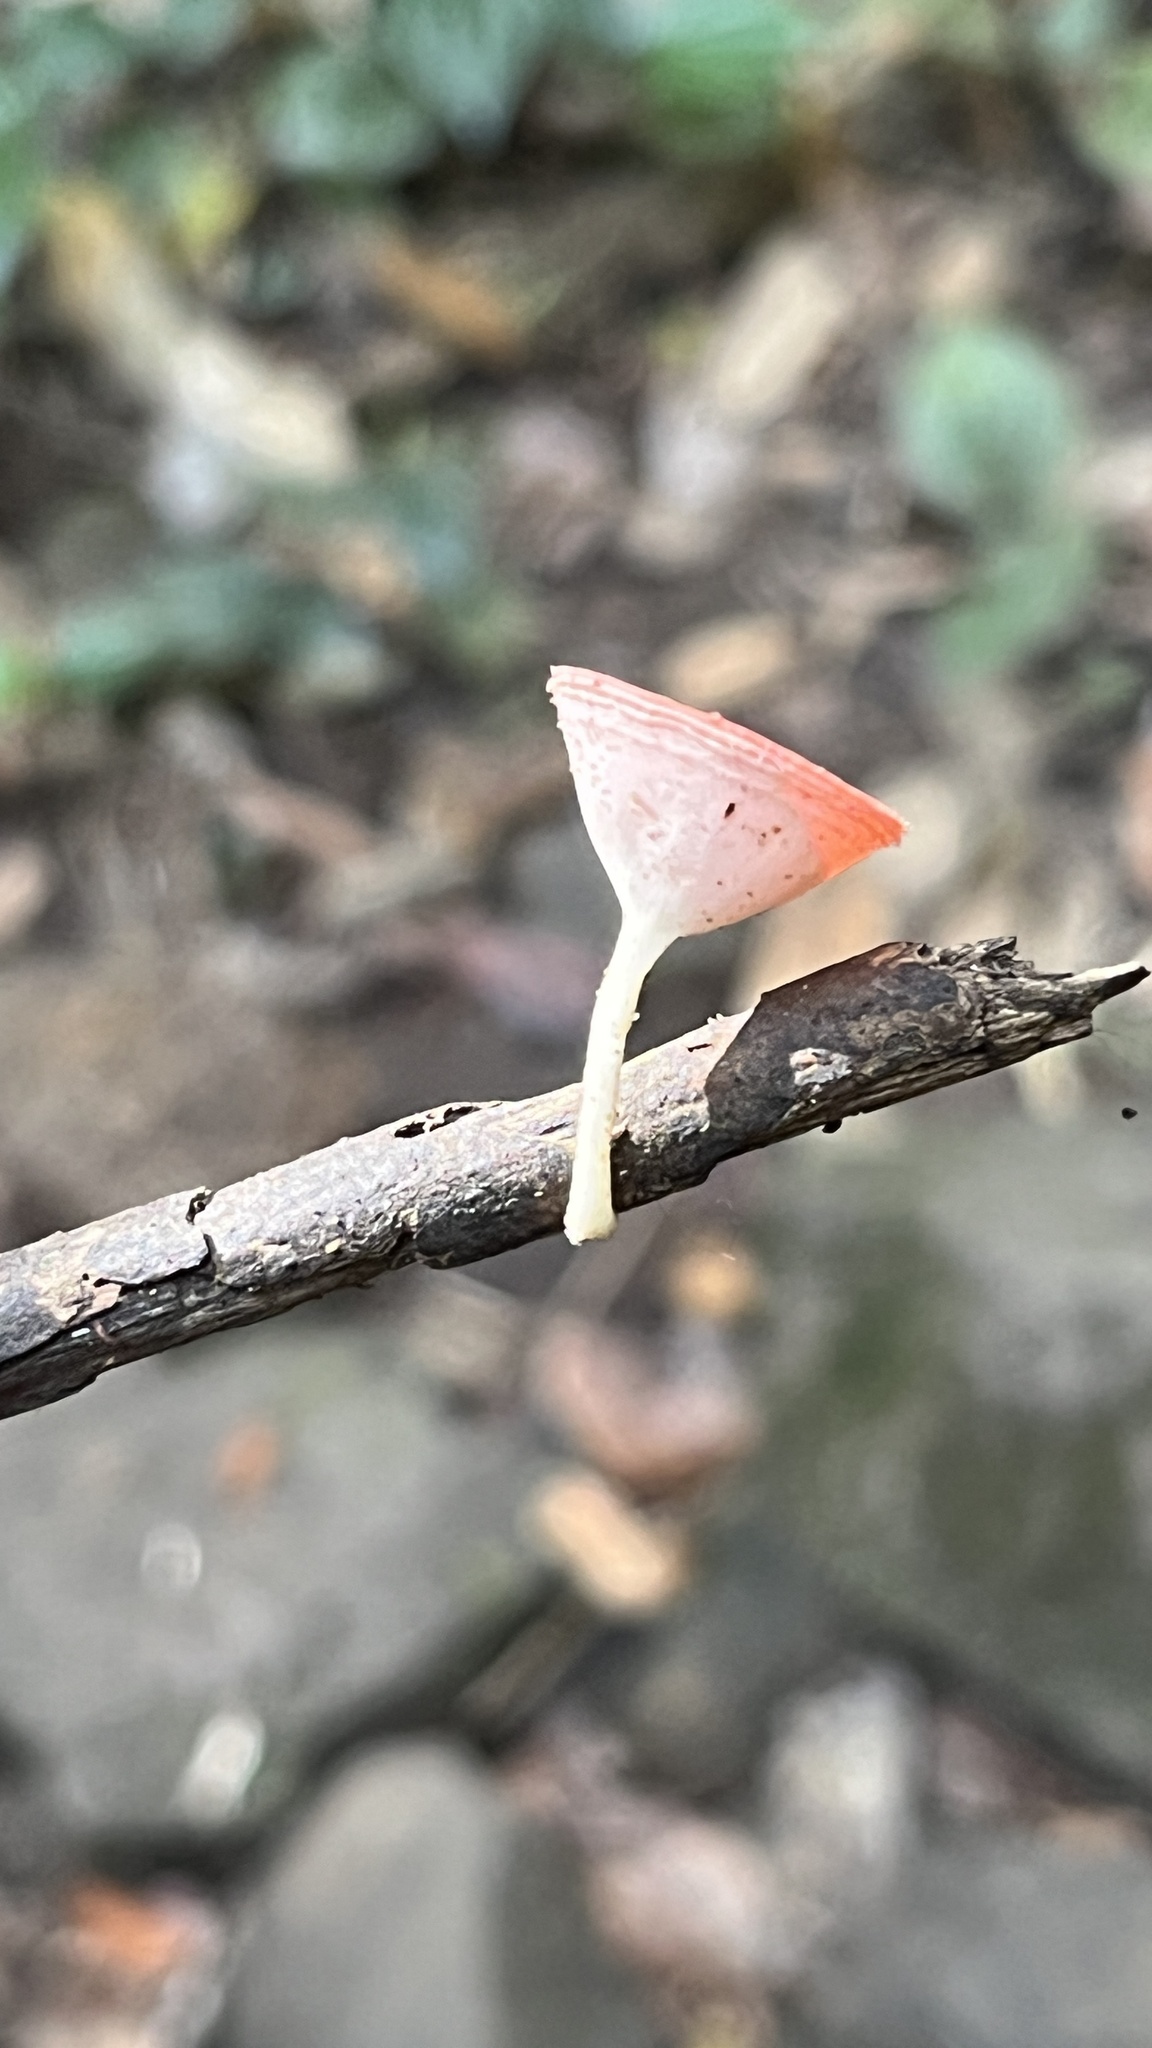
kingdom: Fungi
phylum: Ascomycota
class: Pezizomycetes
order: Pezizales
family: Sarcoscyphaceae
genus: Cookeina
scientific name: Cookeina speciosa
